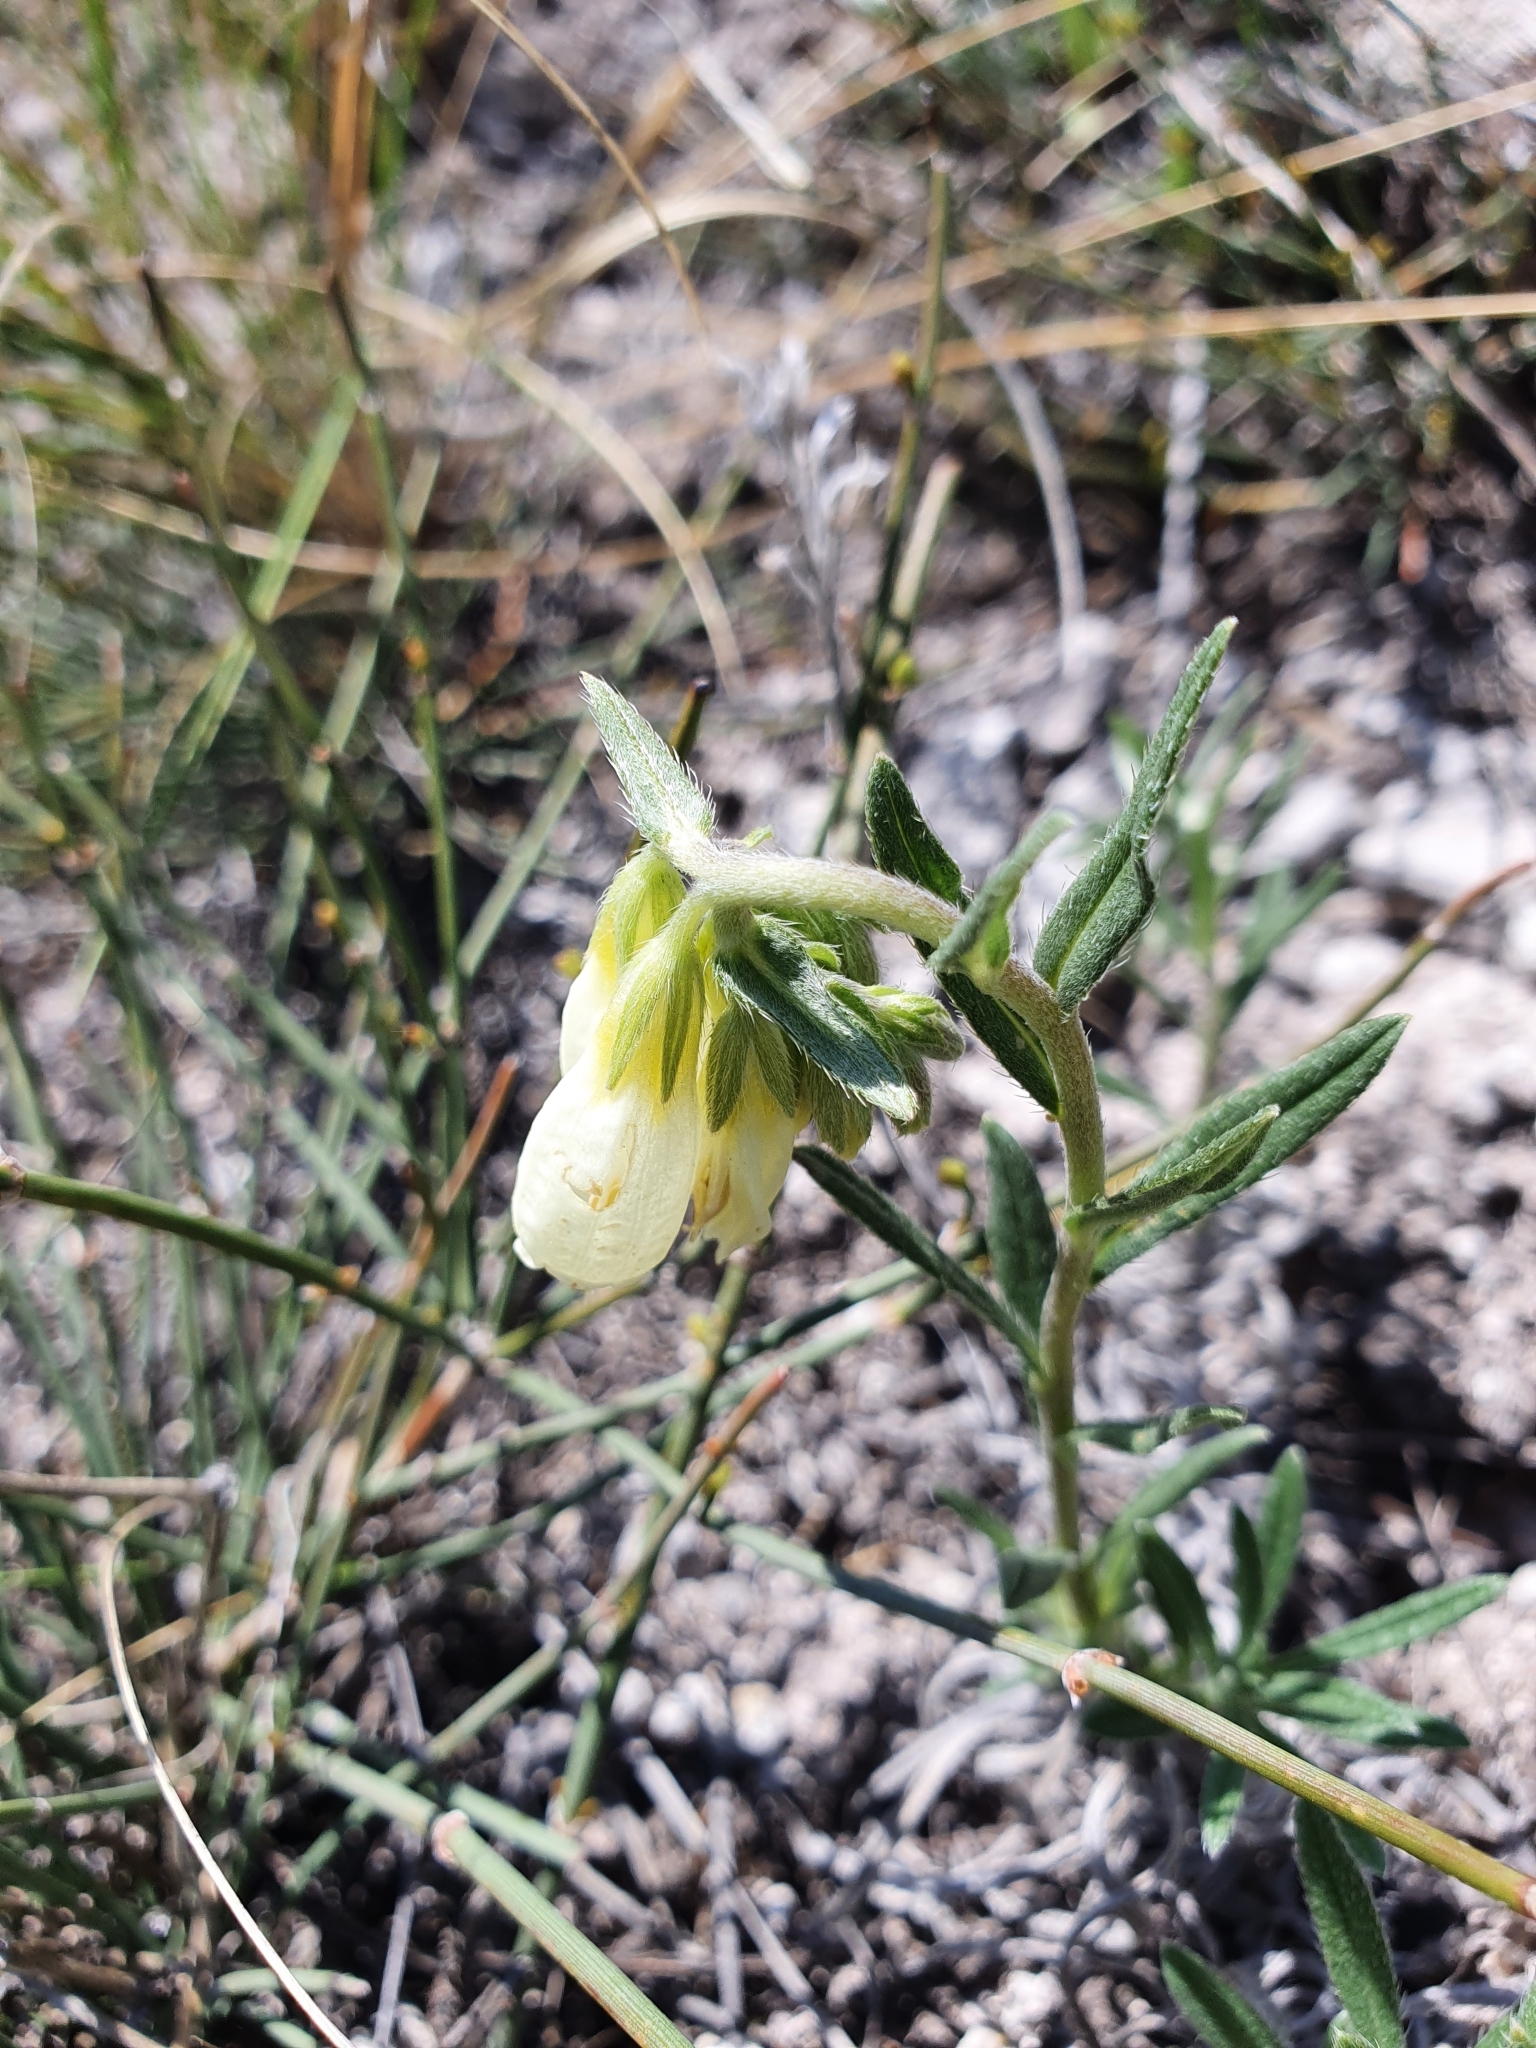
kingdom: Plantae
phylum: Tracheophyta
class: Magnoliopsida
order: Boraginales
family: Boraginaceae
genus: Onosma
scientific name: Onosma simplicissima
